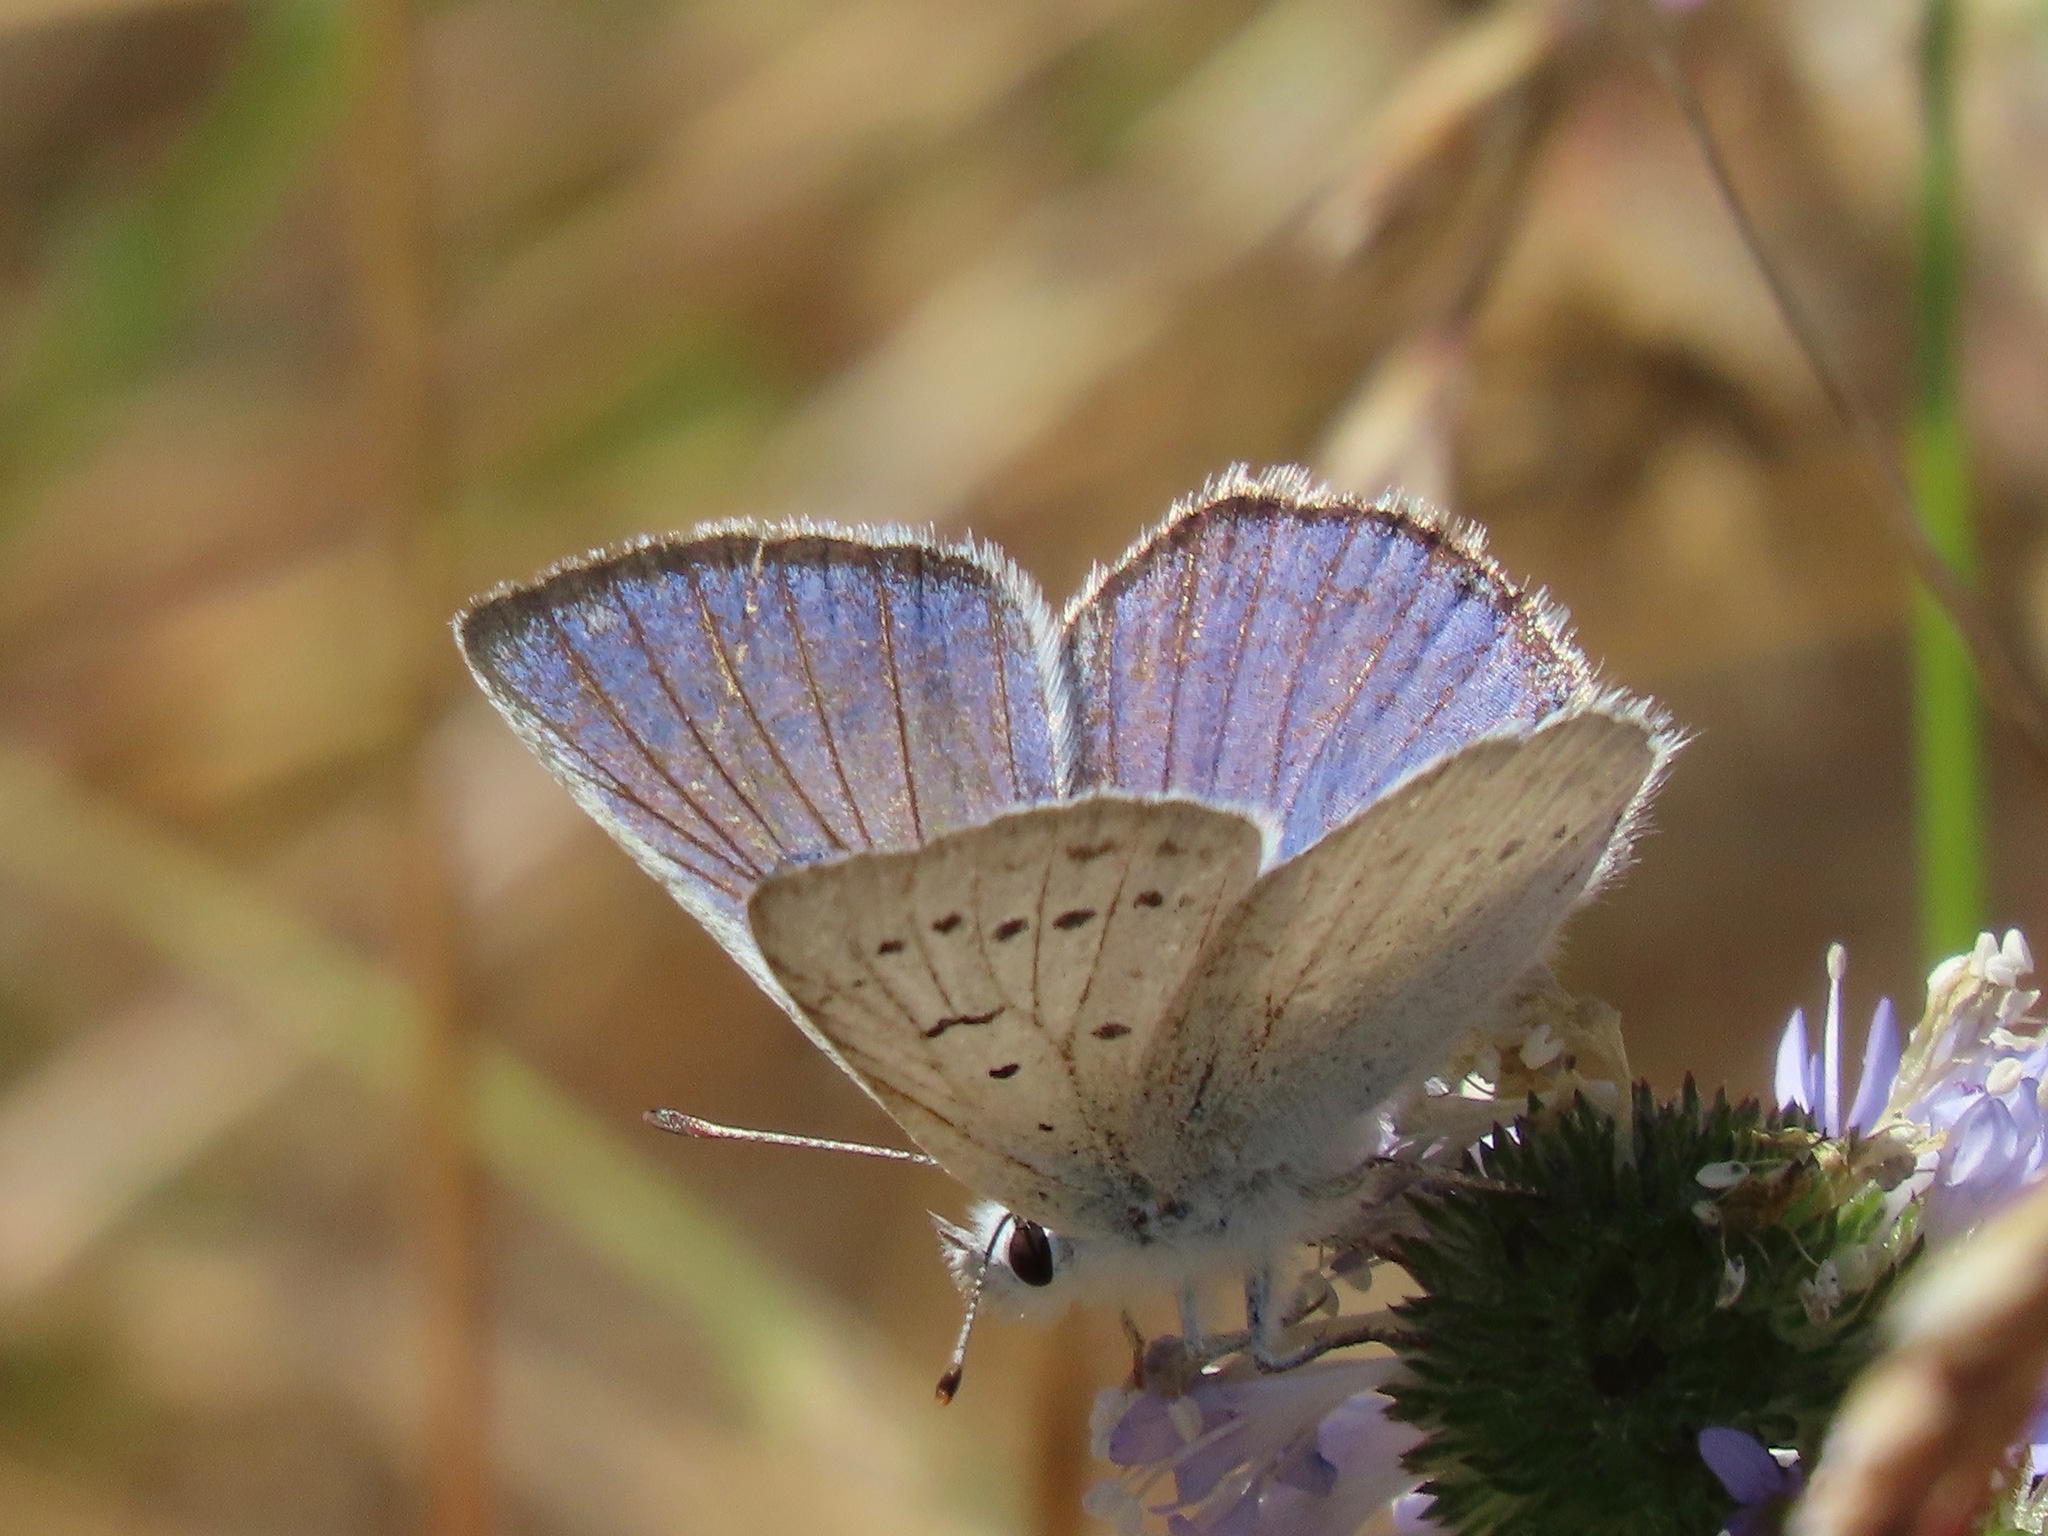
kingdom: Animalia
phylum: Arthropoda
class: Insecta
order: Lepidoptera
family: Lycaenidae
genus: Tharsalea
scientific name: Tharsalea heteronea
